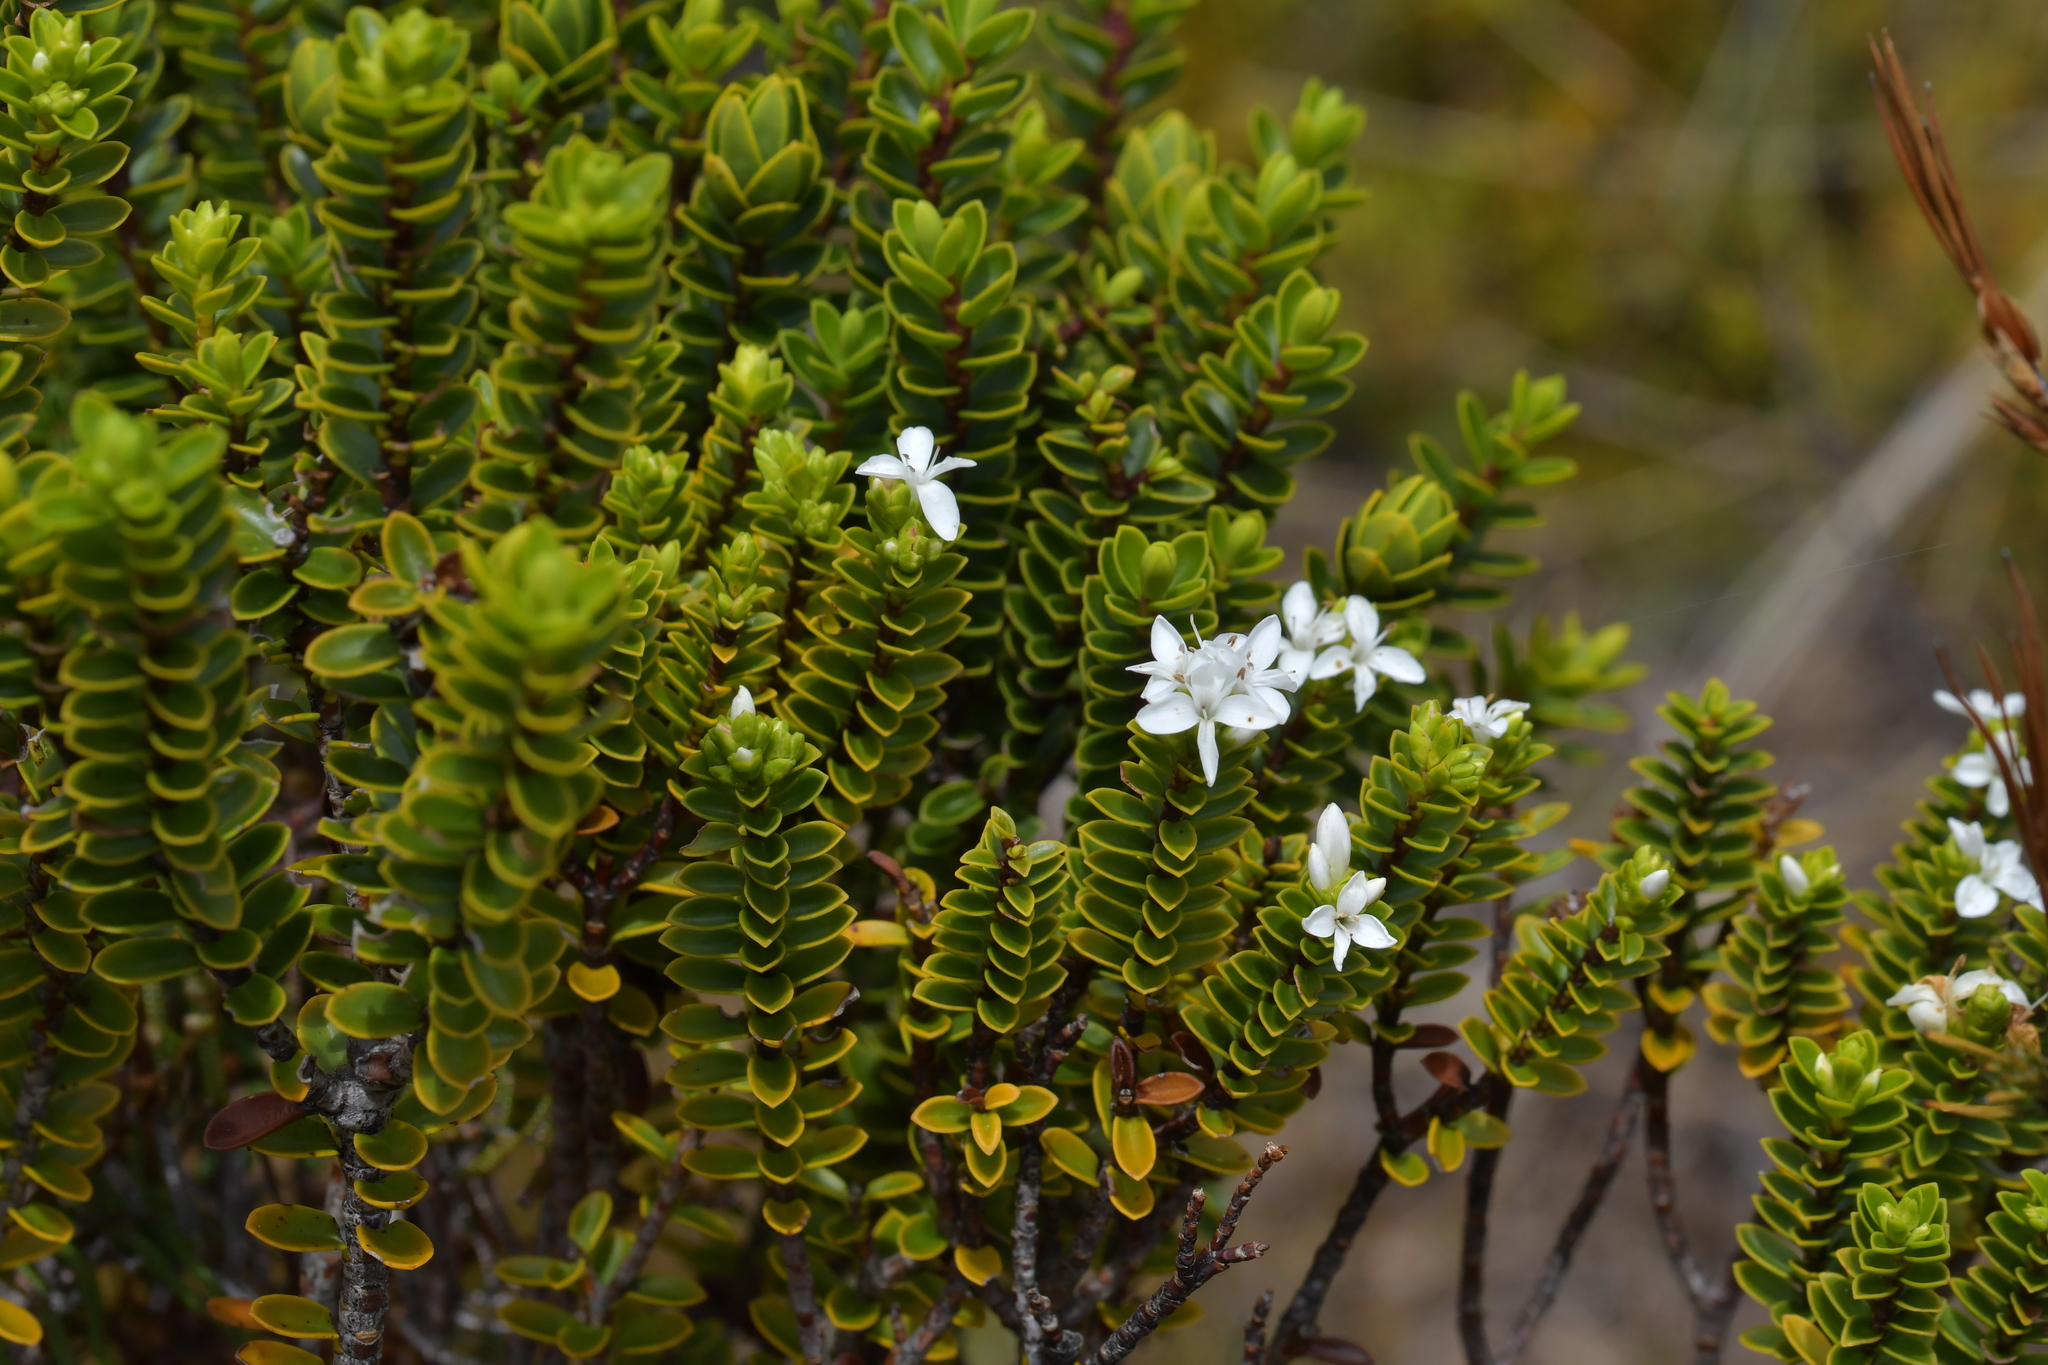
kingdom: Plantae
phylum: Tracheophyta
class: Magnoliopsida
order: Lamiales
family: Plantaginaceae
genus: Veronica
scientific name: Veronica odora
